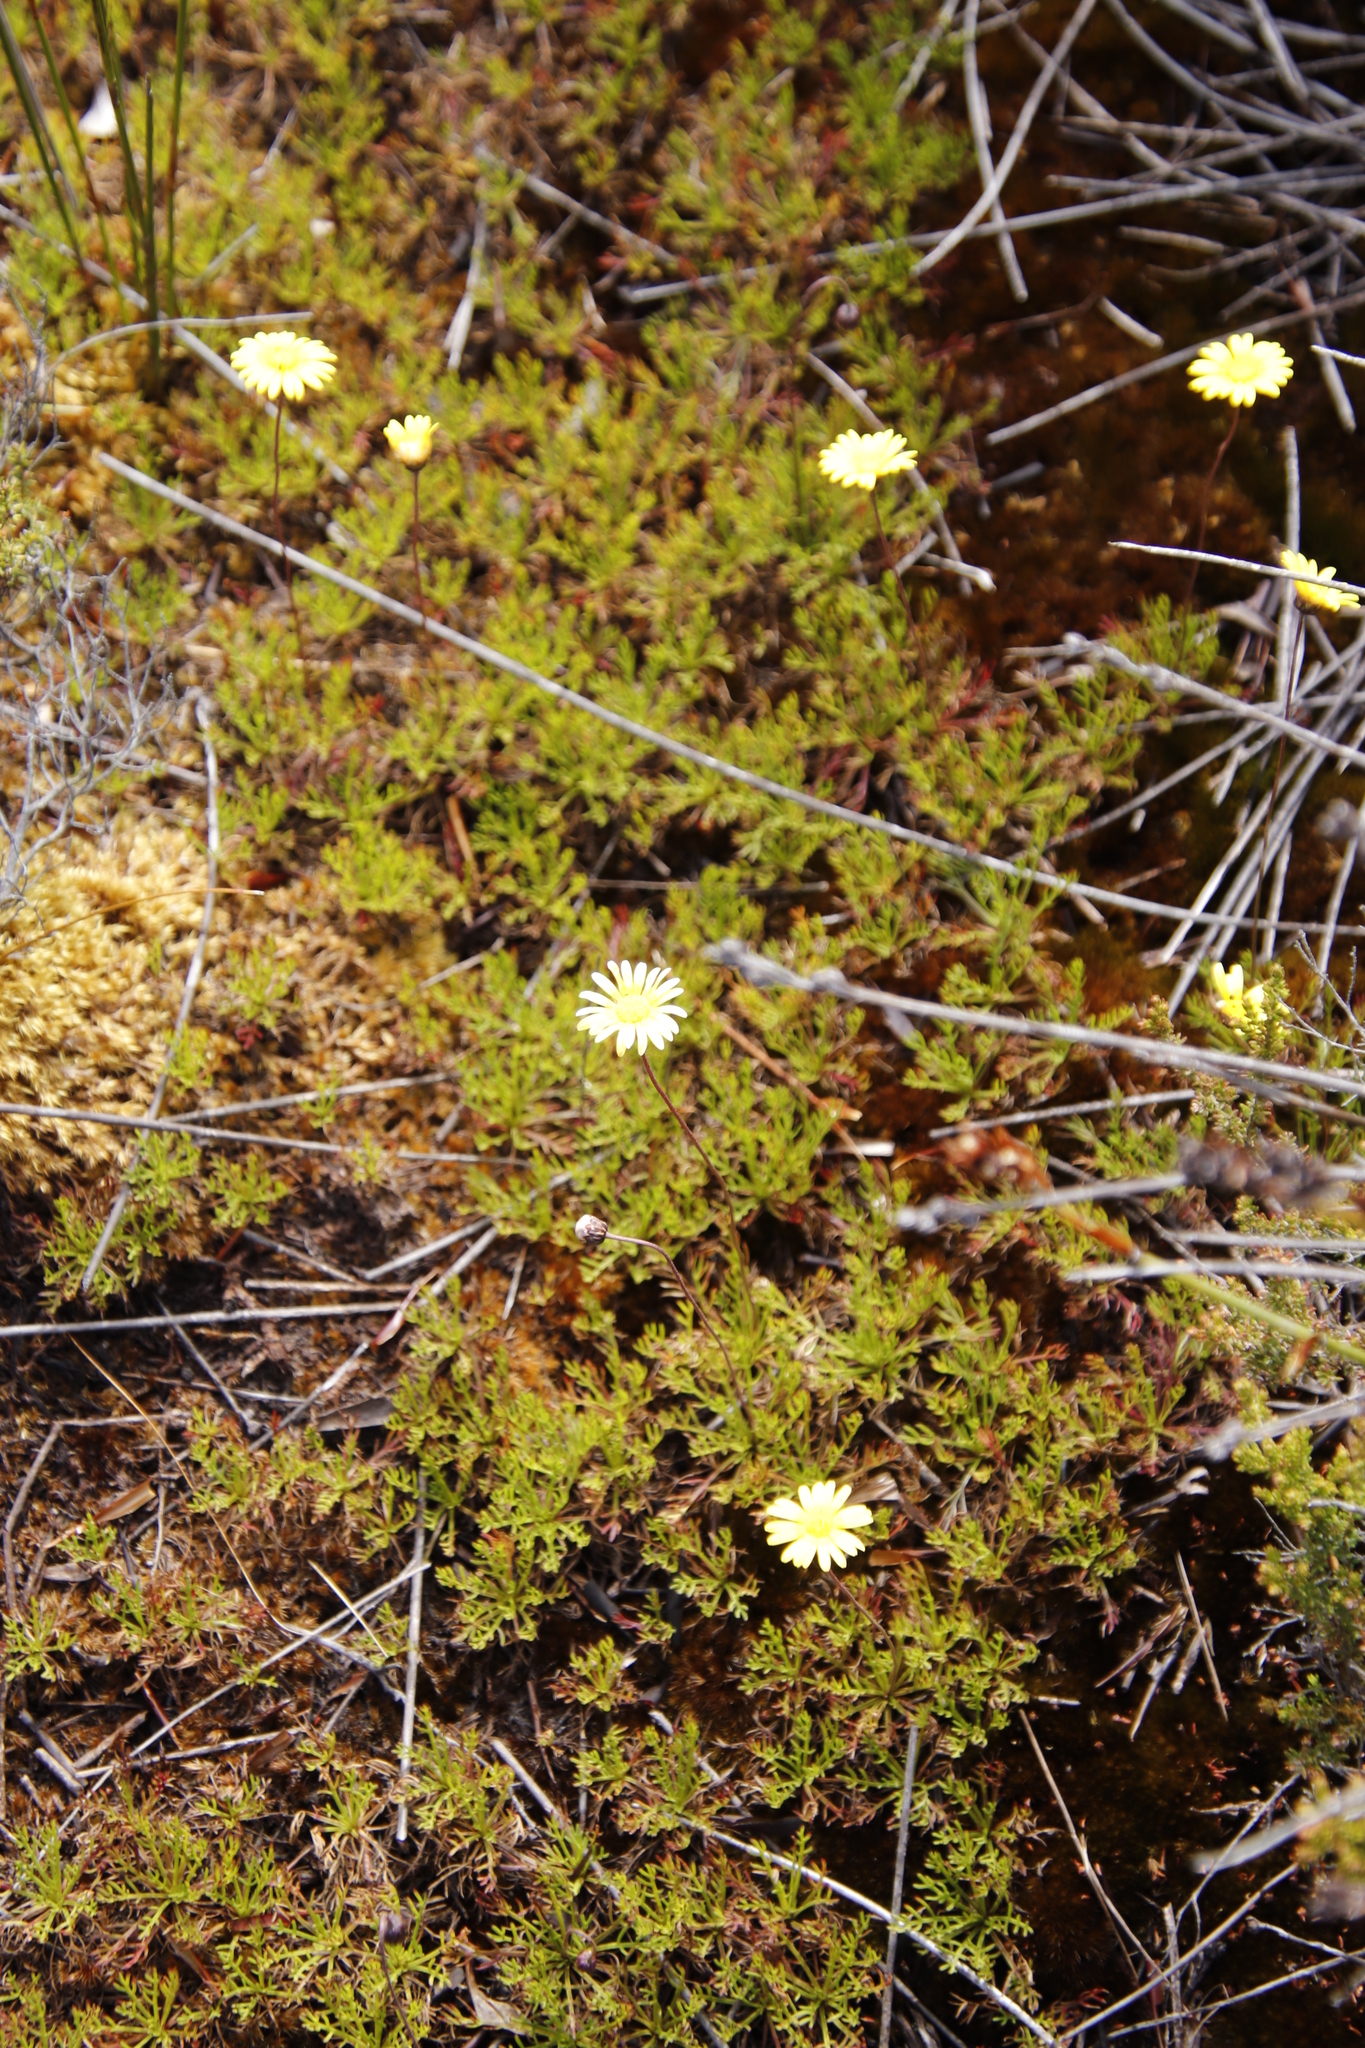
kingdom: Plantae
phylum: Tracheophyta
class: Magnoliopsida
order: Asterales
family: Asteraceae
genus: Ursinia
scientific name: Ursinia nudicaulis
